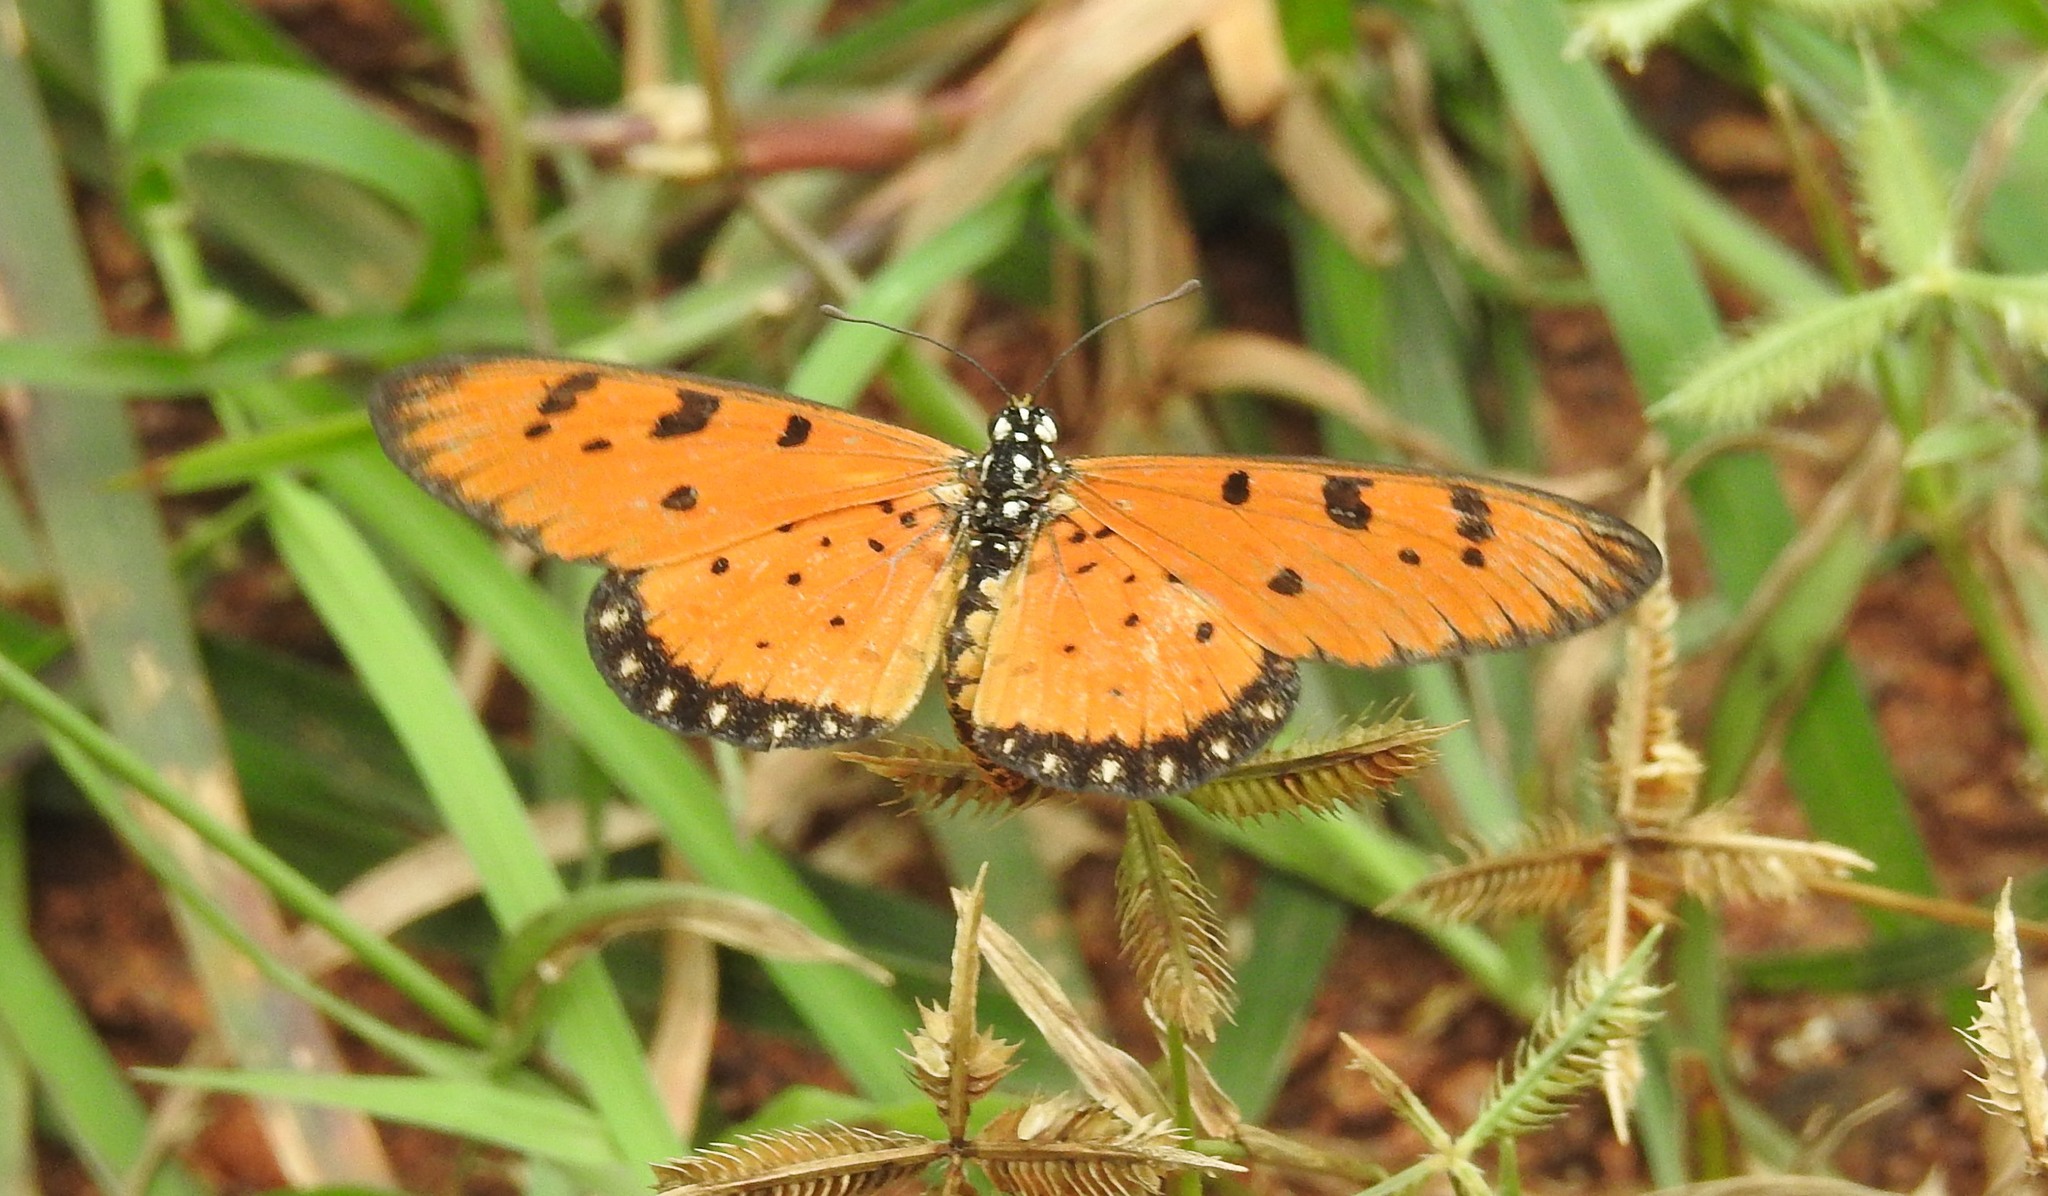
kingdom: Animalia
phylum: Arthropoda
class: Insecta
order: Lepidoptera
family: Nymphalidae
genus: Acraea
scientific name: Acraea terpsicore
